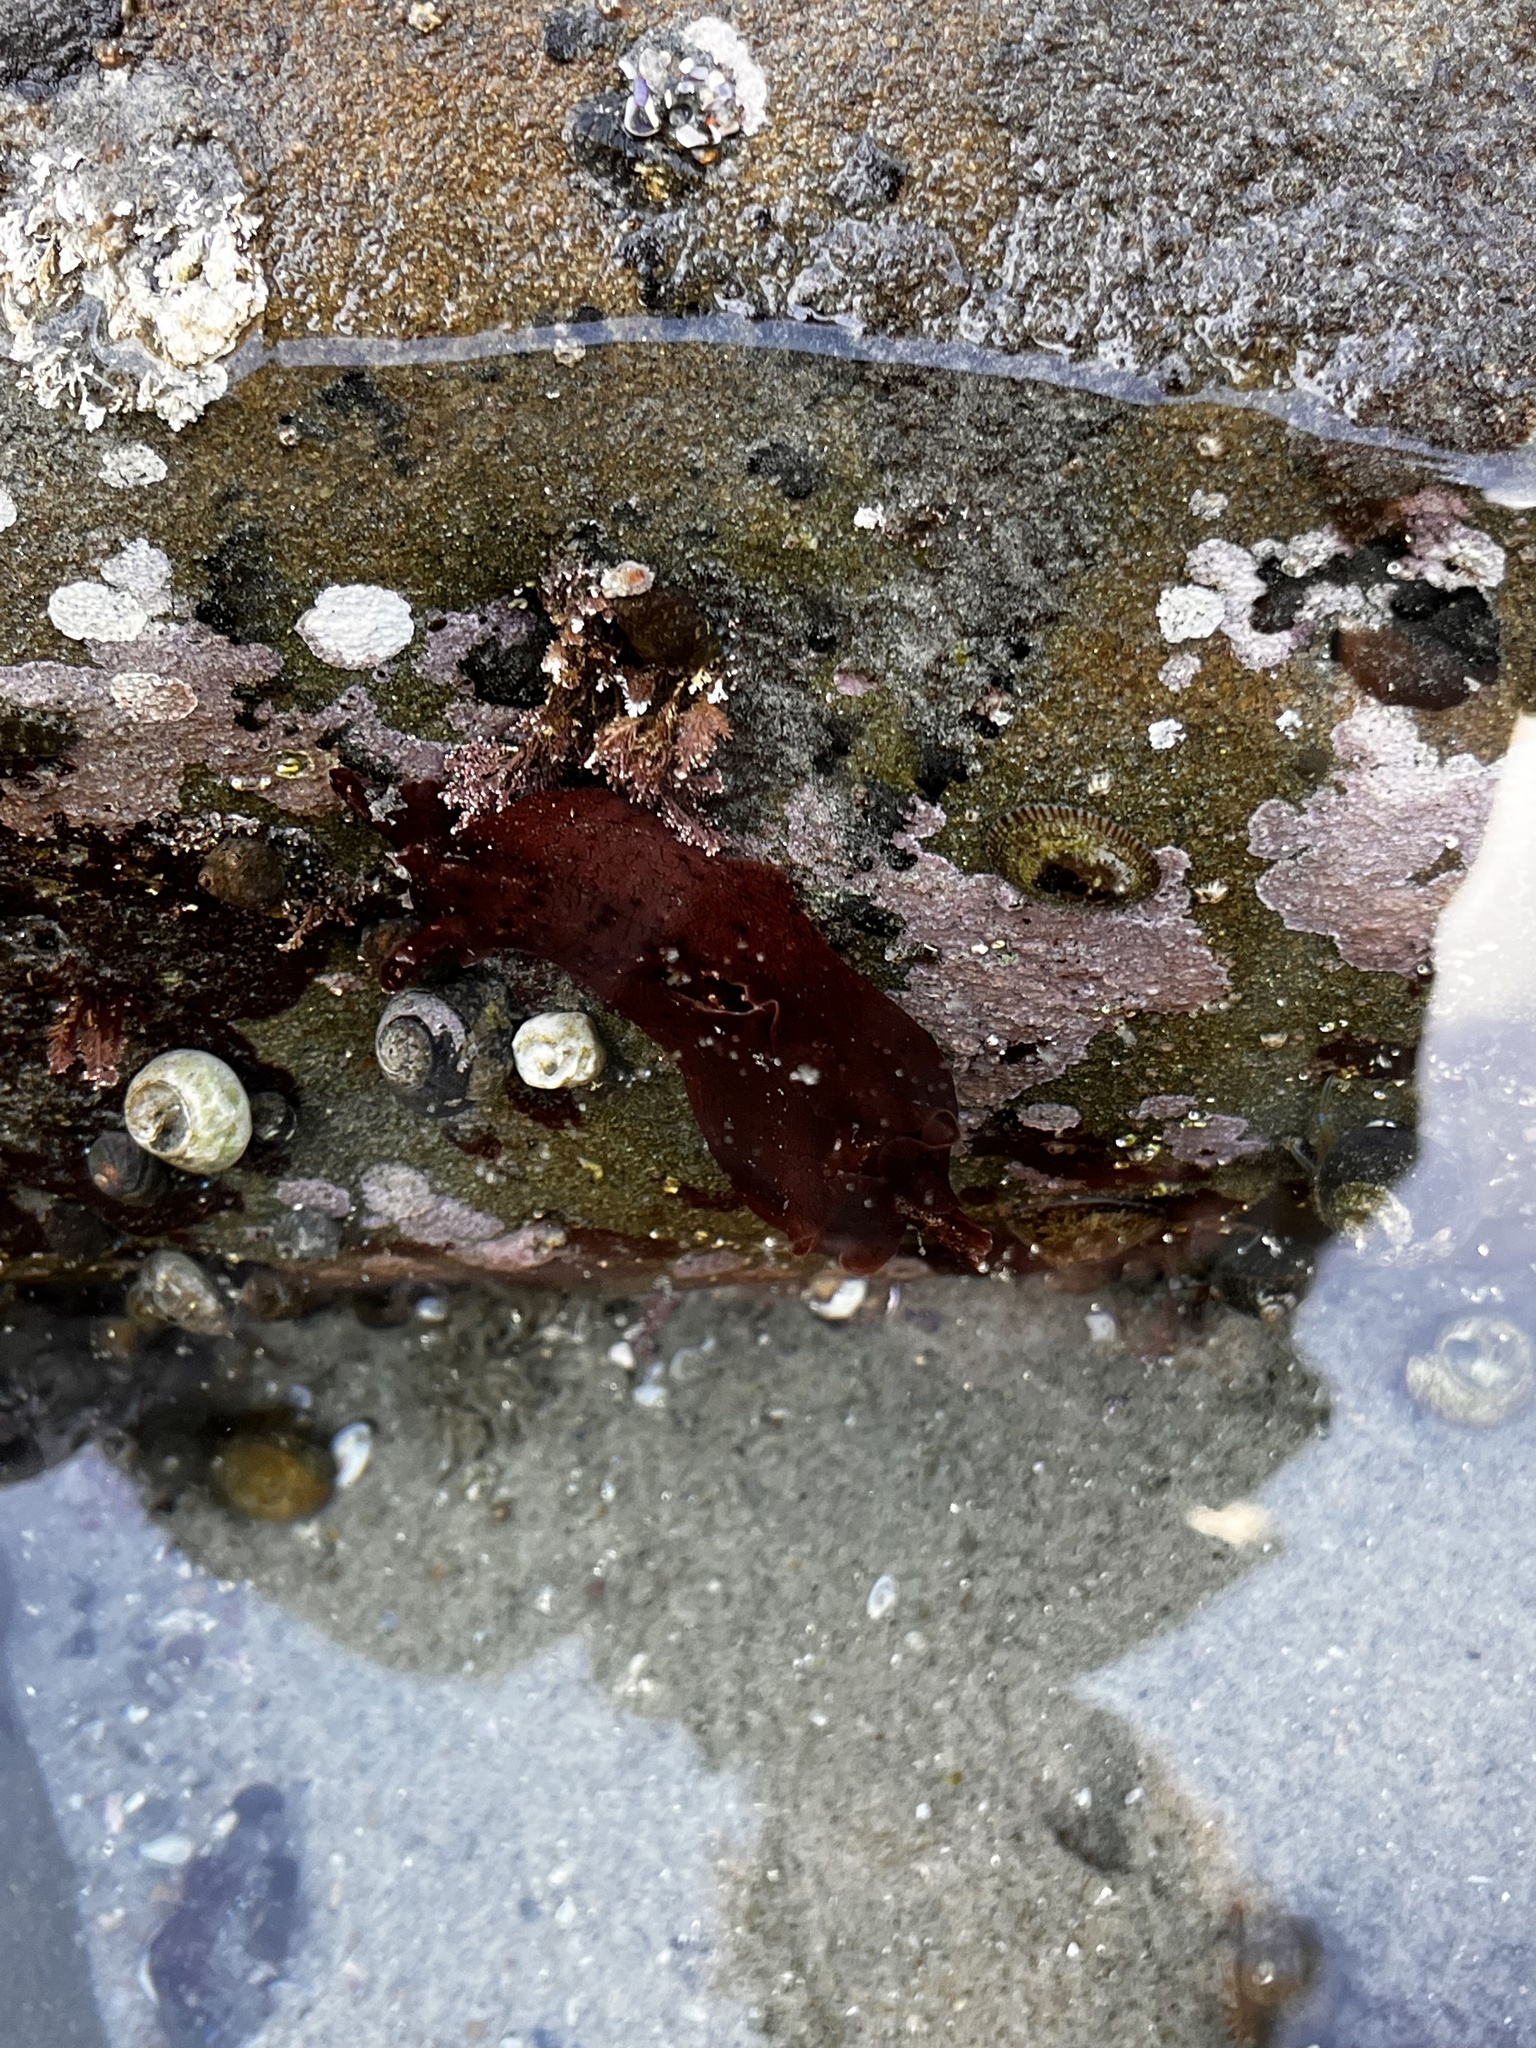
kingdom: Animalia
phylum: Mollusca
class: Gastropoda
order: Aplysiida
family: Aplysiidae
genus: Aplysia
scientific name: Aplysia californica
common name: California seahare
